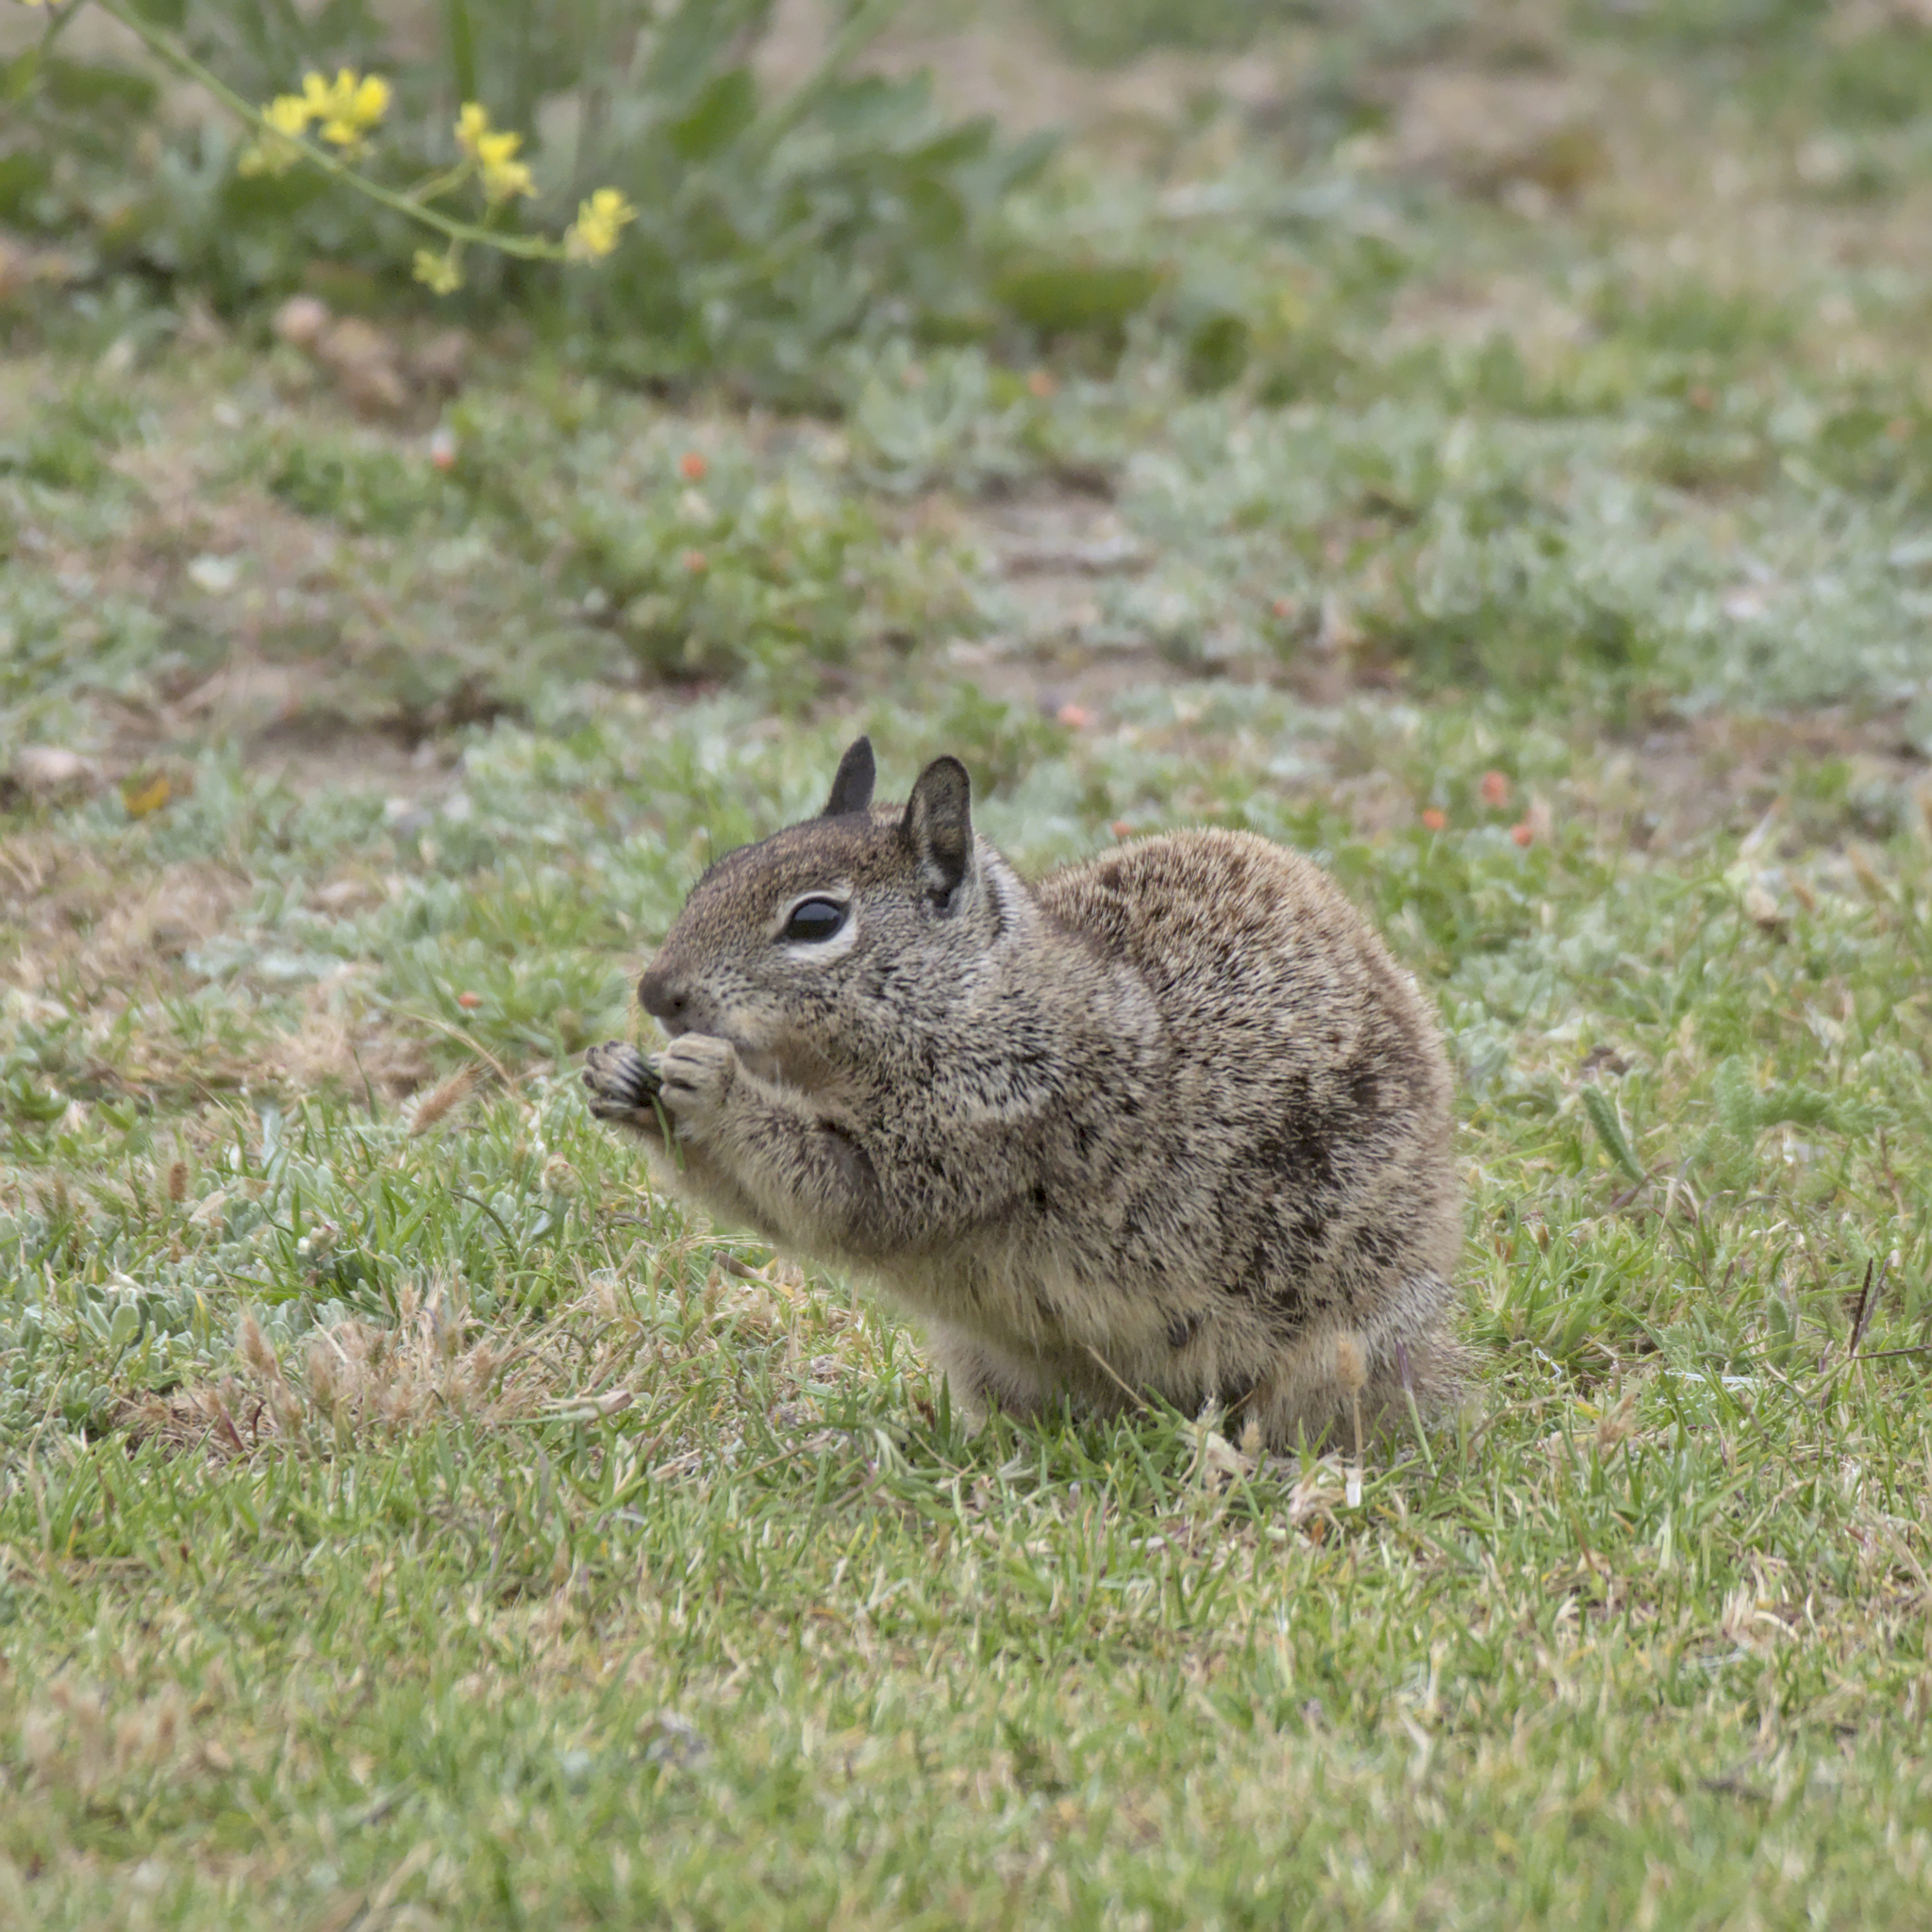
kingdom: Animalia
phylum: Chordata
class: Mammalia
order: Rodentia
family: Sciuridae
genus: Otospermophilus
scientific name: Otospermophilus beecheyi
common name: California ground squirrel
